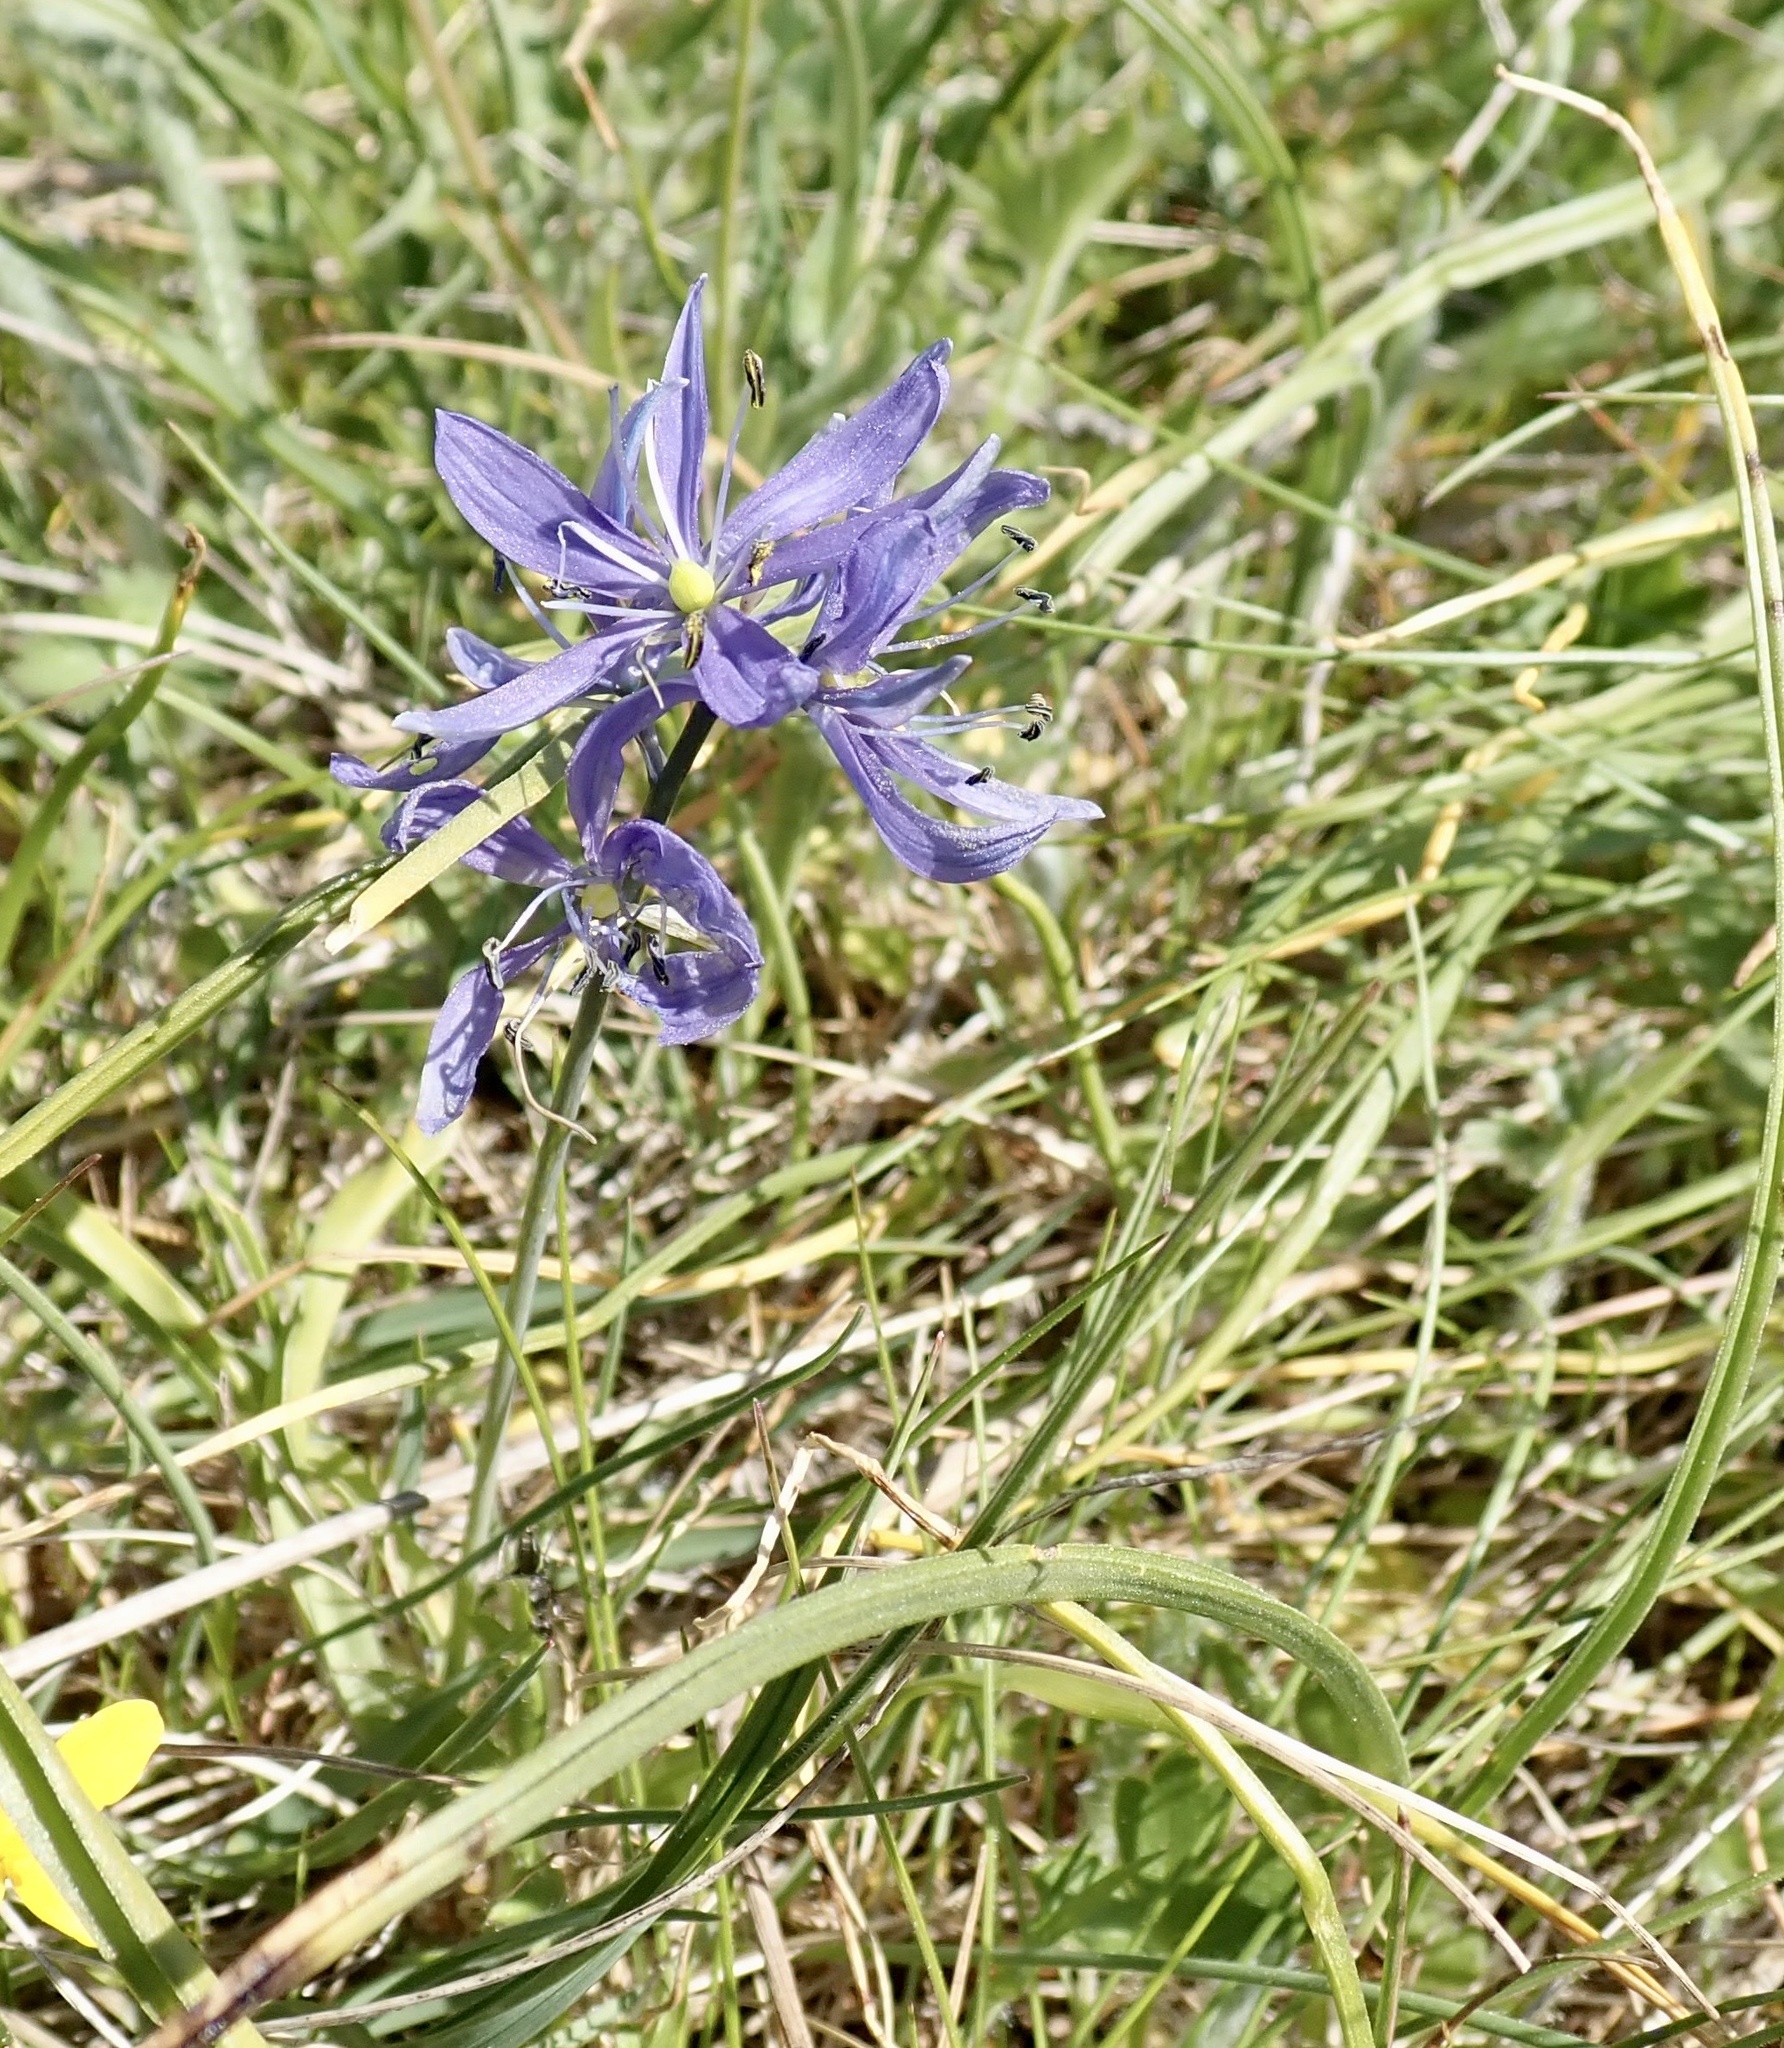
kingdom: Plantae
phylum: Tracheophyta
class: Liliopsida
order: Asparagales
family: Asparagaceae
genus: Camassia
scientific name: Camassia quamash
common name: Common camas
